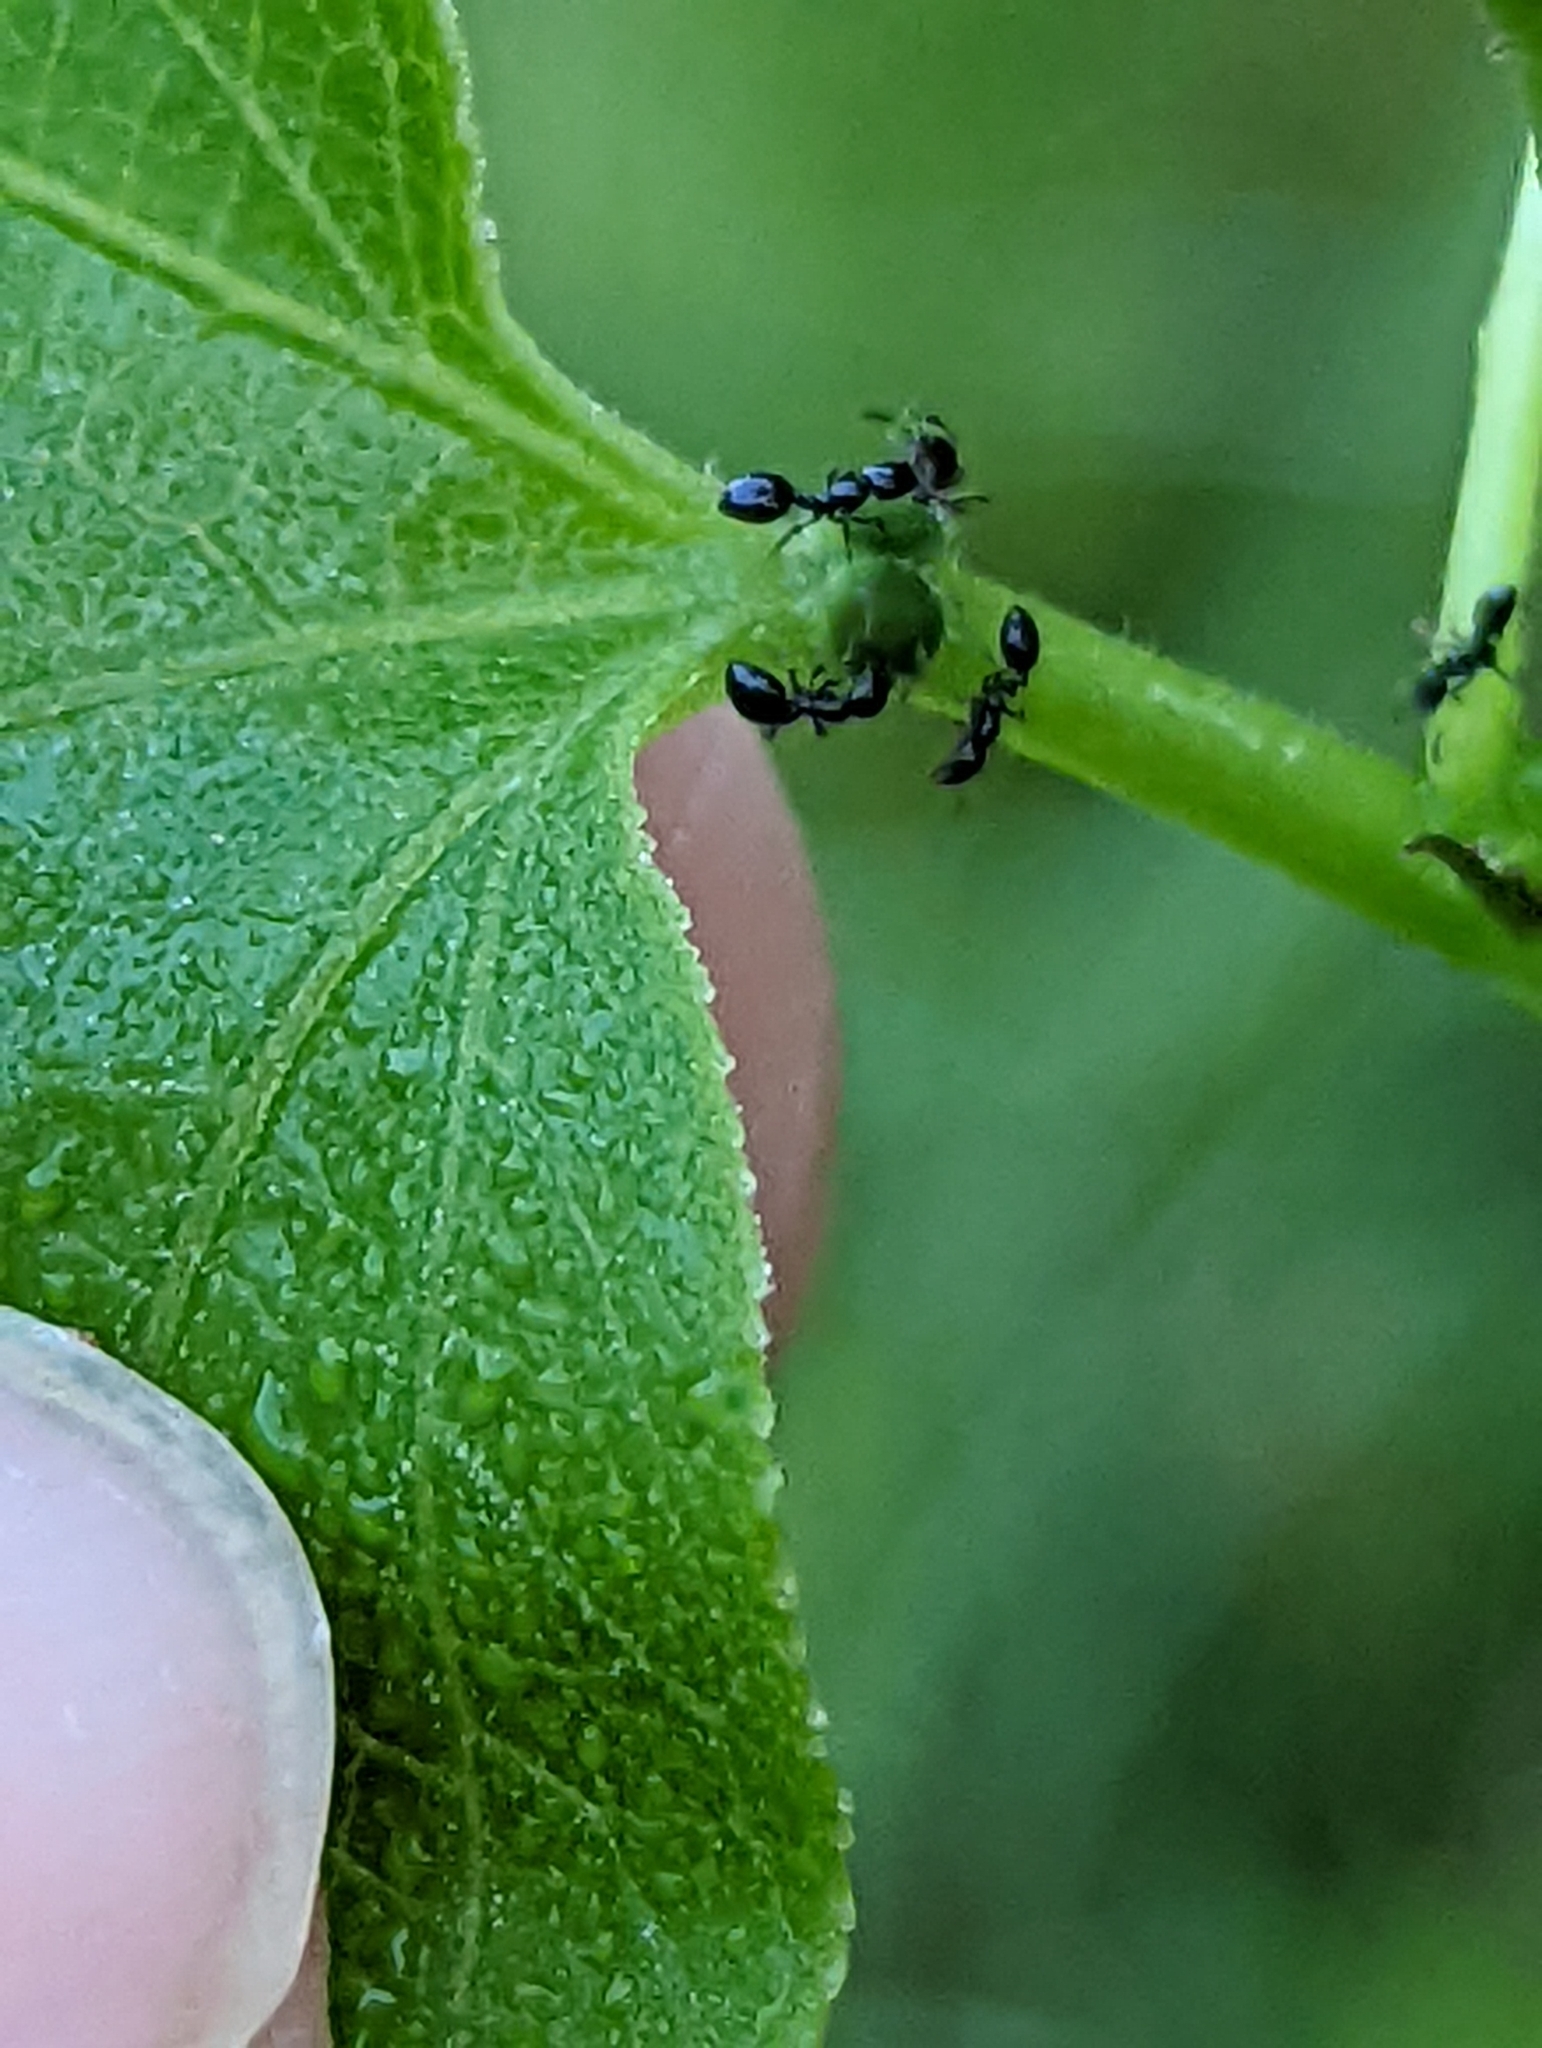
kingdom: Animalia
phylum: Arthropoda
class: Insecta
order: Hymenoptera
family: Formicidae
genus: Monomorium
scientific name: Monomorium minimum
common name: Little black ant
